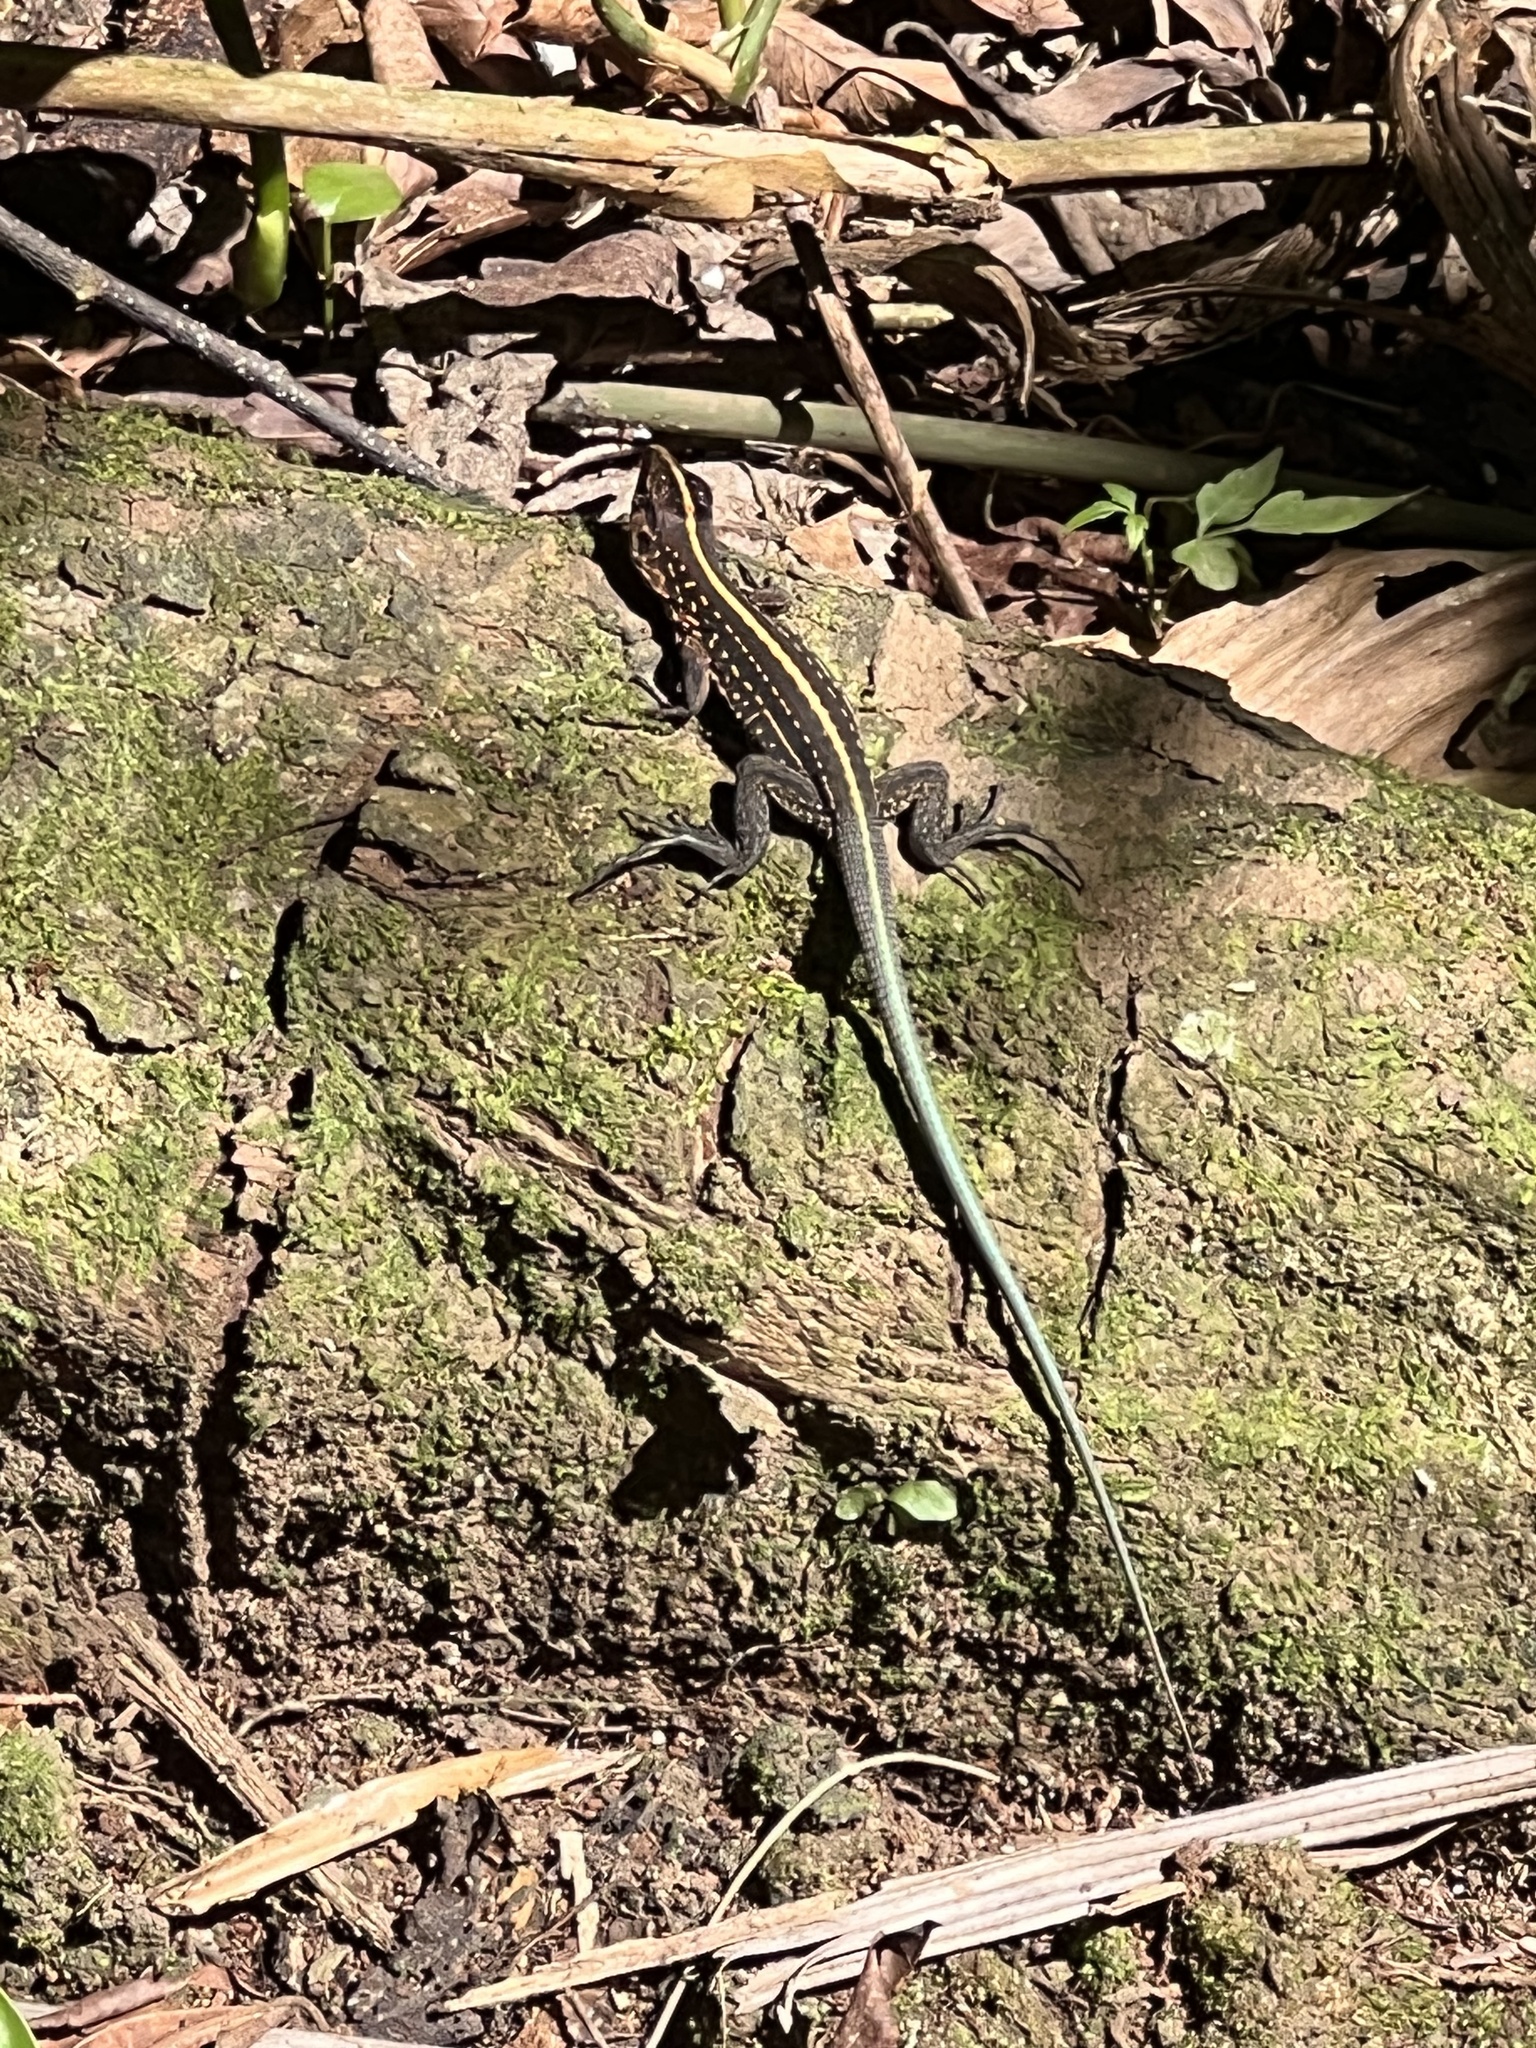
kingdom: Animalia
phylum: Chordata
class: Squamata
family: Teiidae
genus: Holcosus
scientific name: Holcosus festivus
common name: Middle american ameiva
